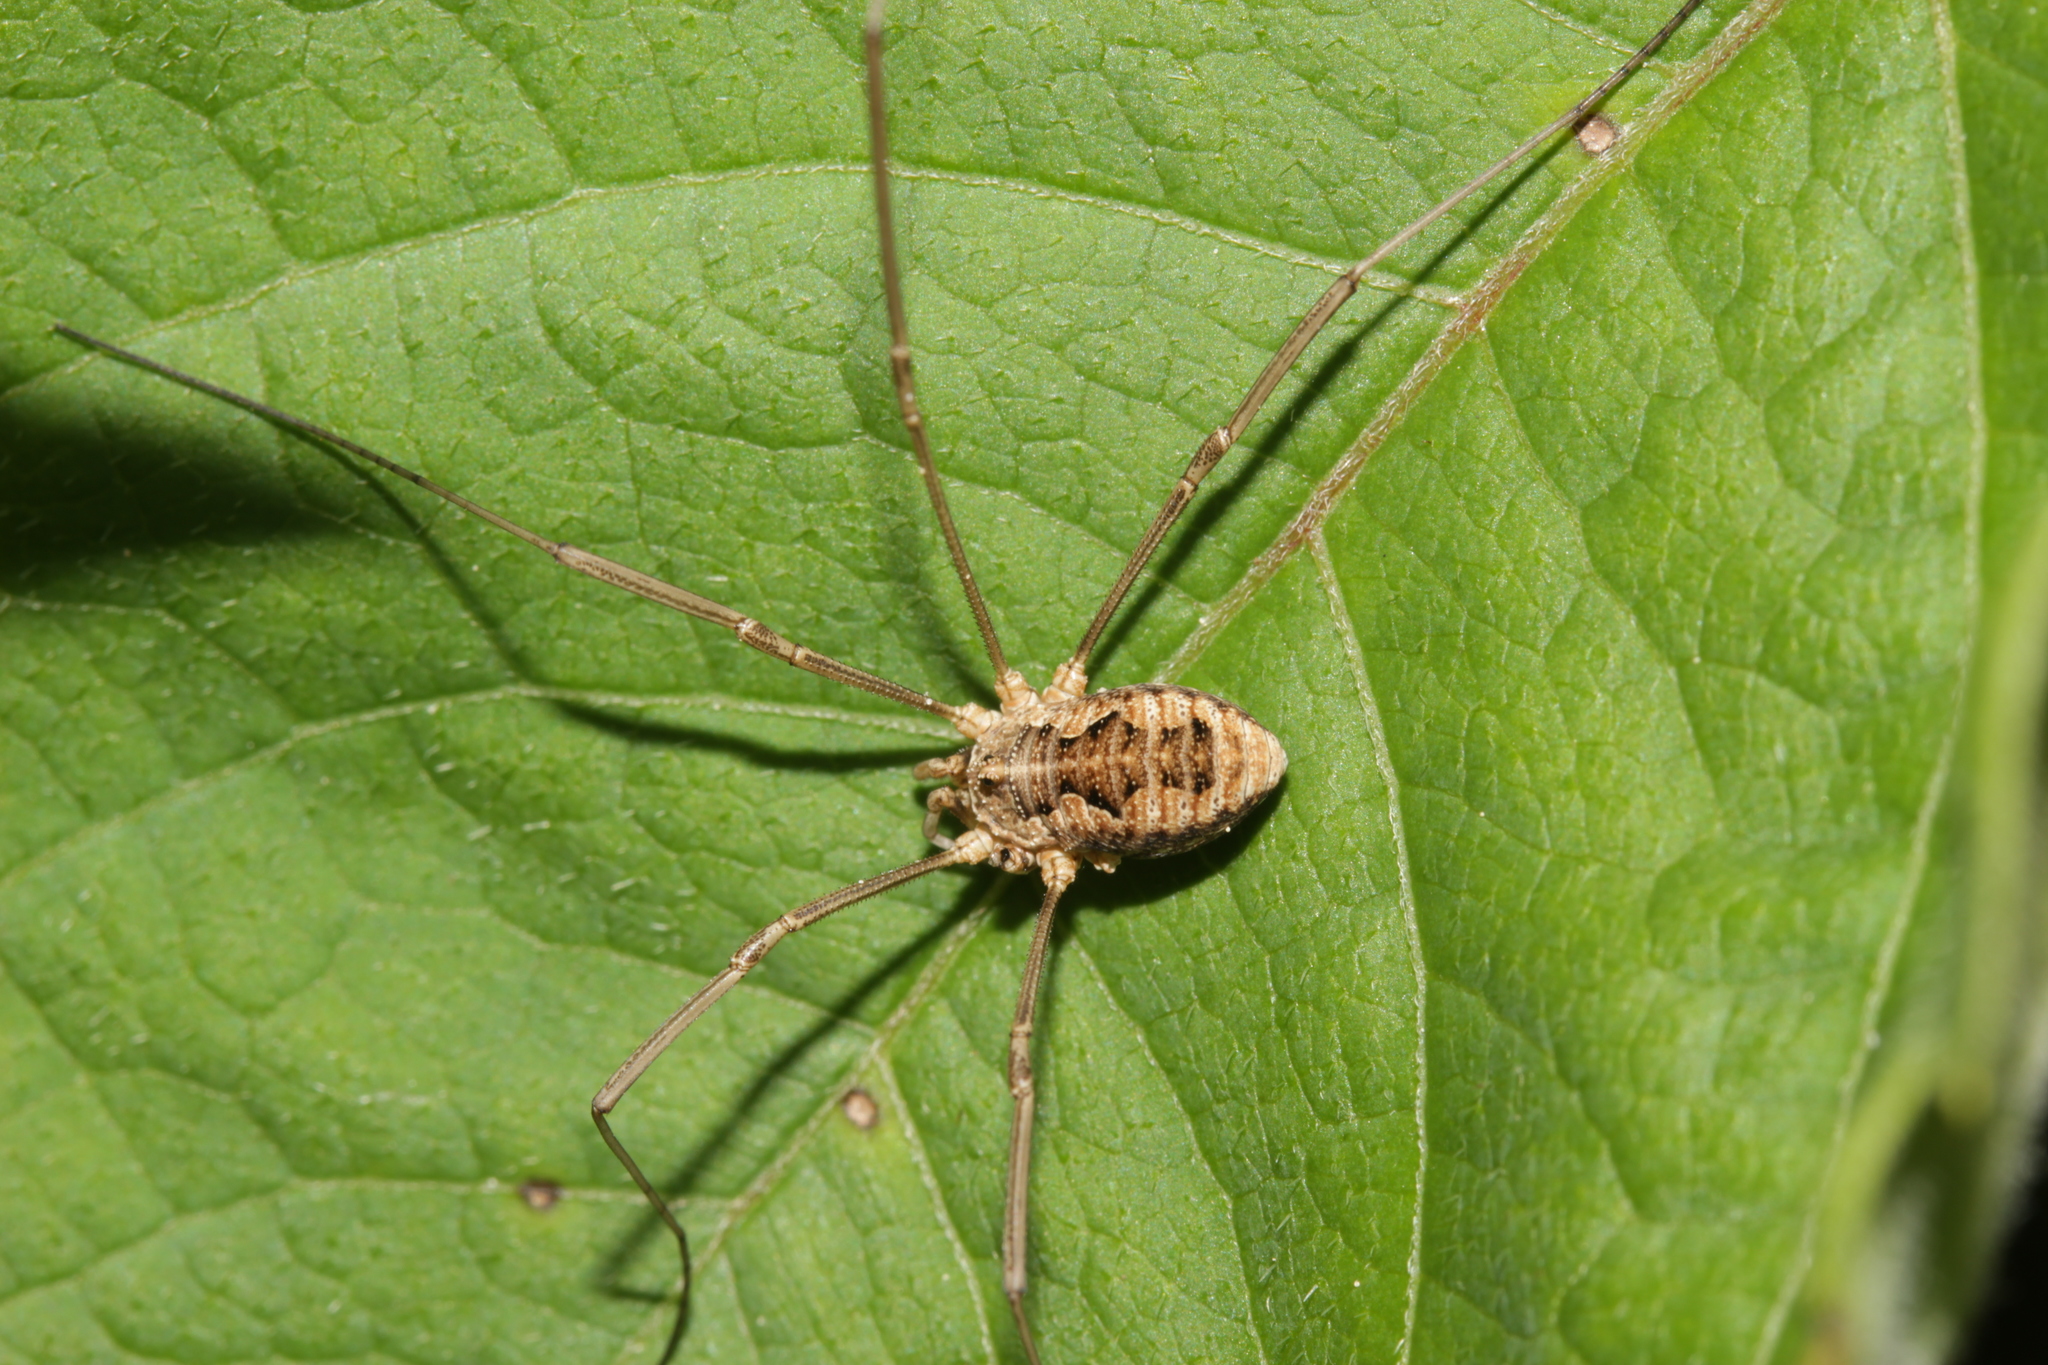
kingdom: Animalia
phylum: Arthropoda
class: Arachnida
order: Opiliones
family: Phalangiidae
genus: Phalangium
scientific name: Phalangium opilio
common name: Daddy longleg
